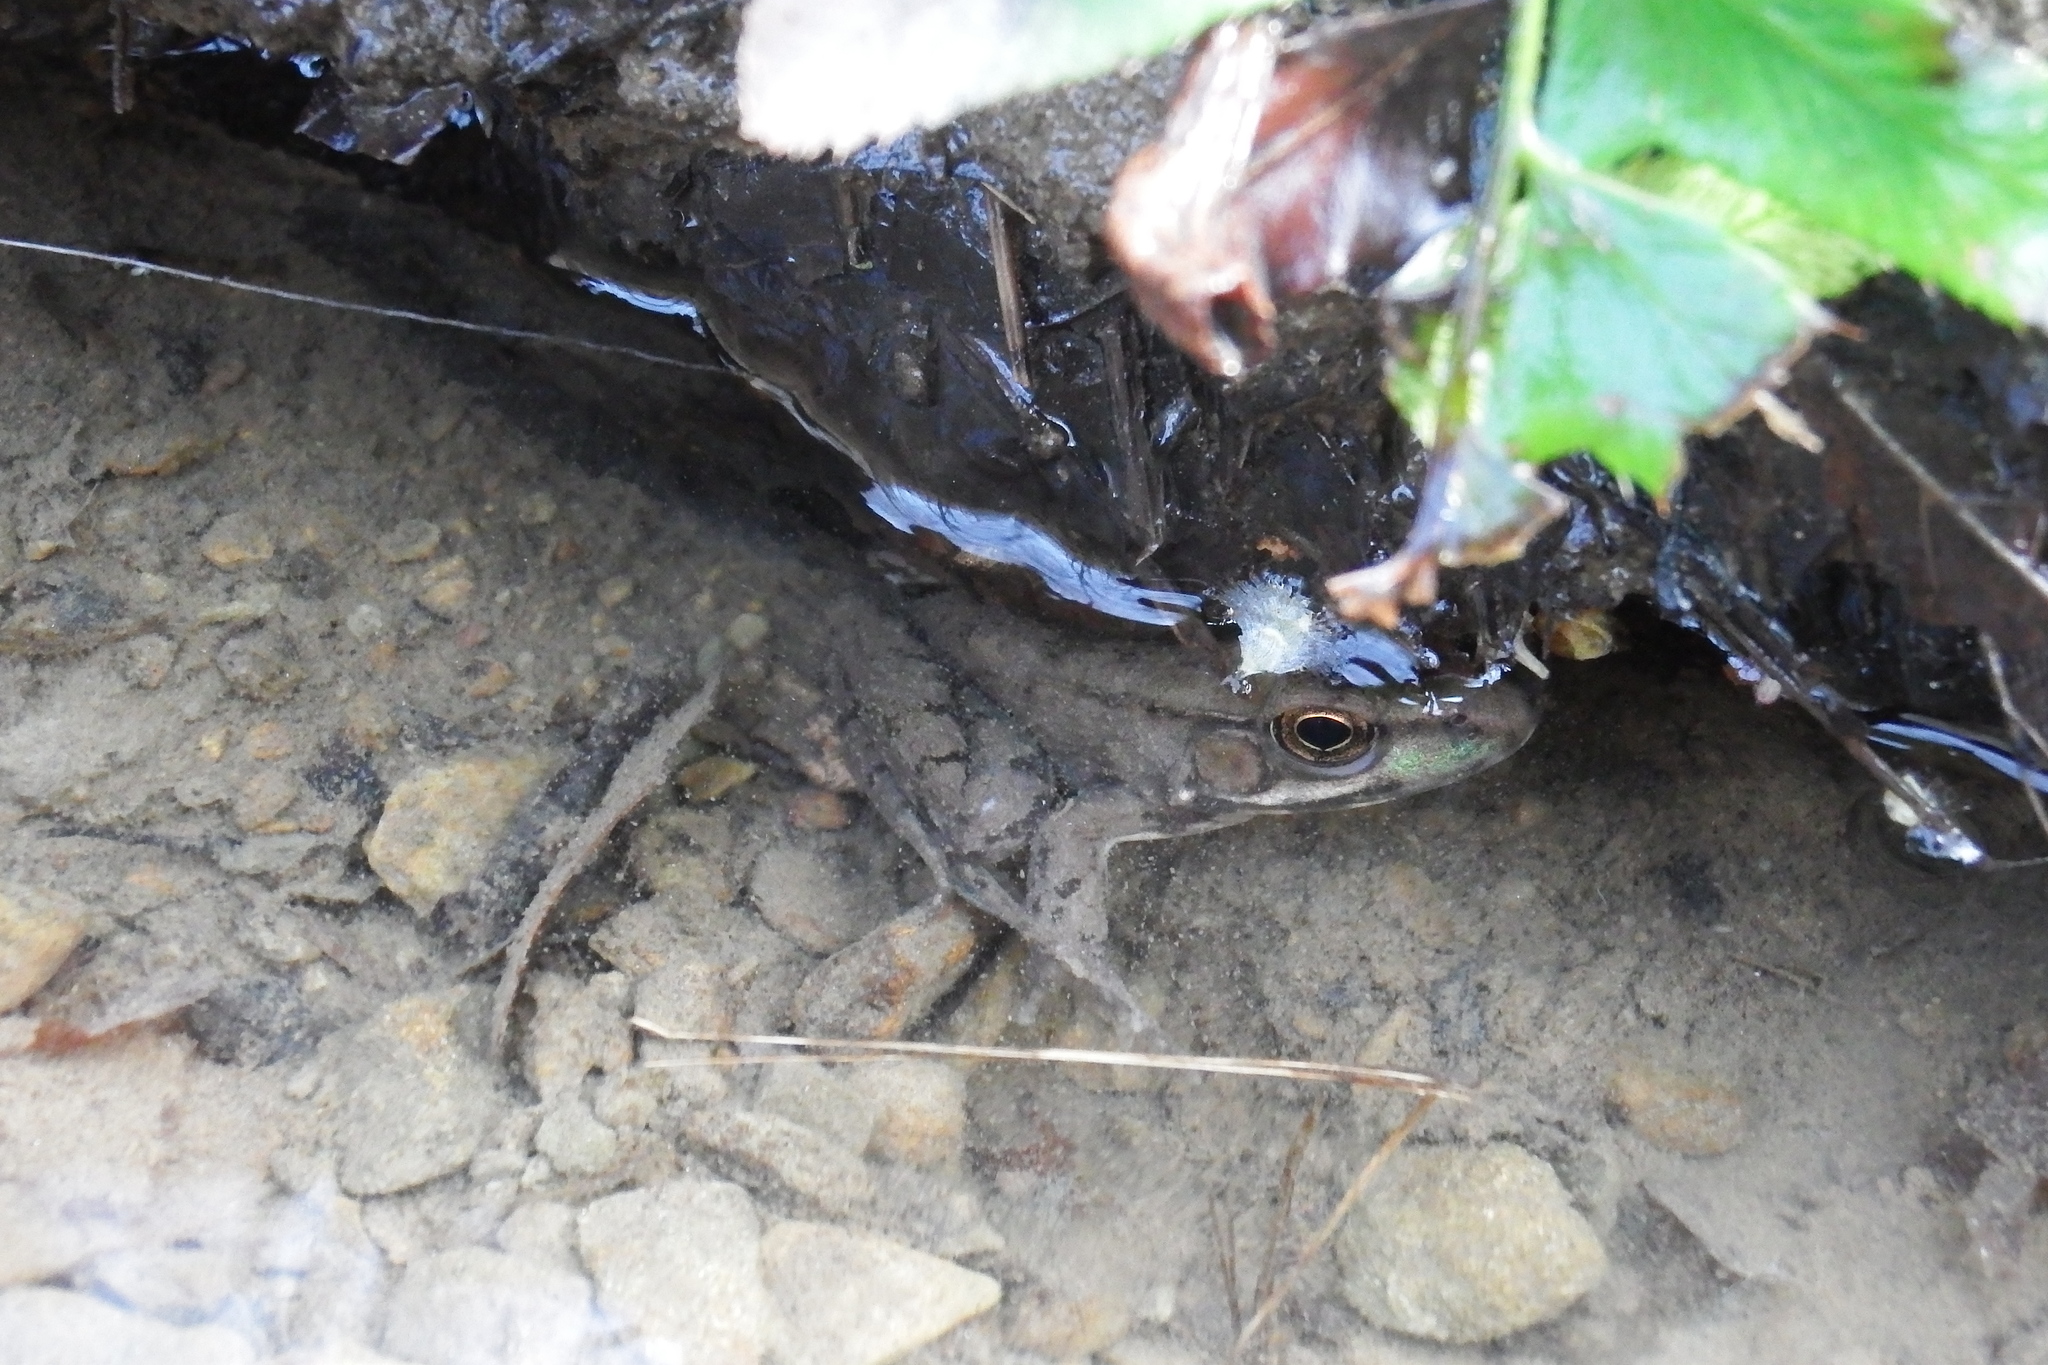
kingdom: Animalia
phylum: Chordata
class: Amphibia
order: Anura
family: Ranidae
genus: Lithobates
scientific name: Lithobates clamitans
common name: Green frog
